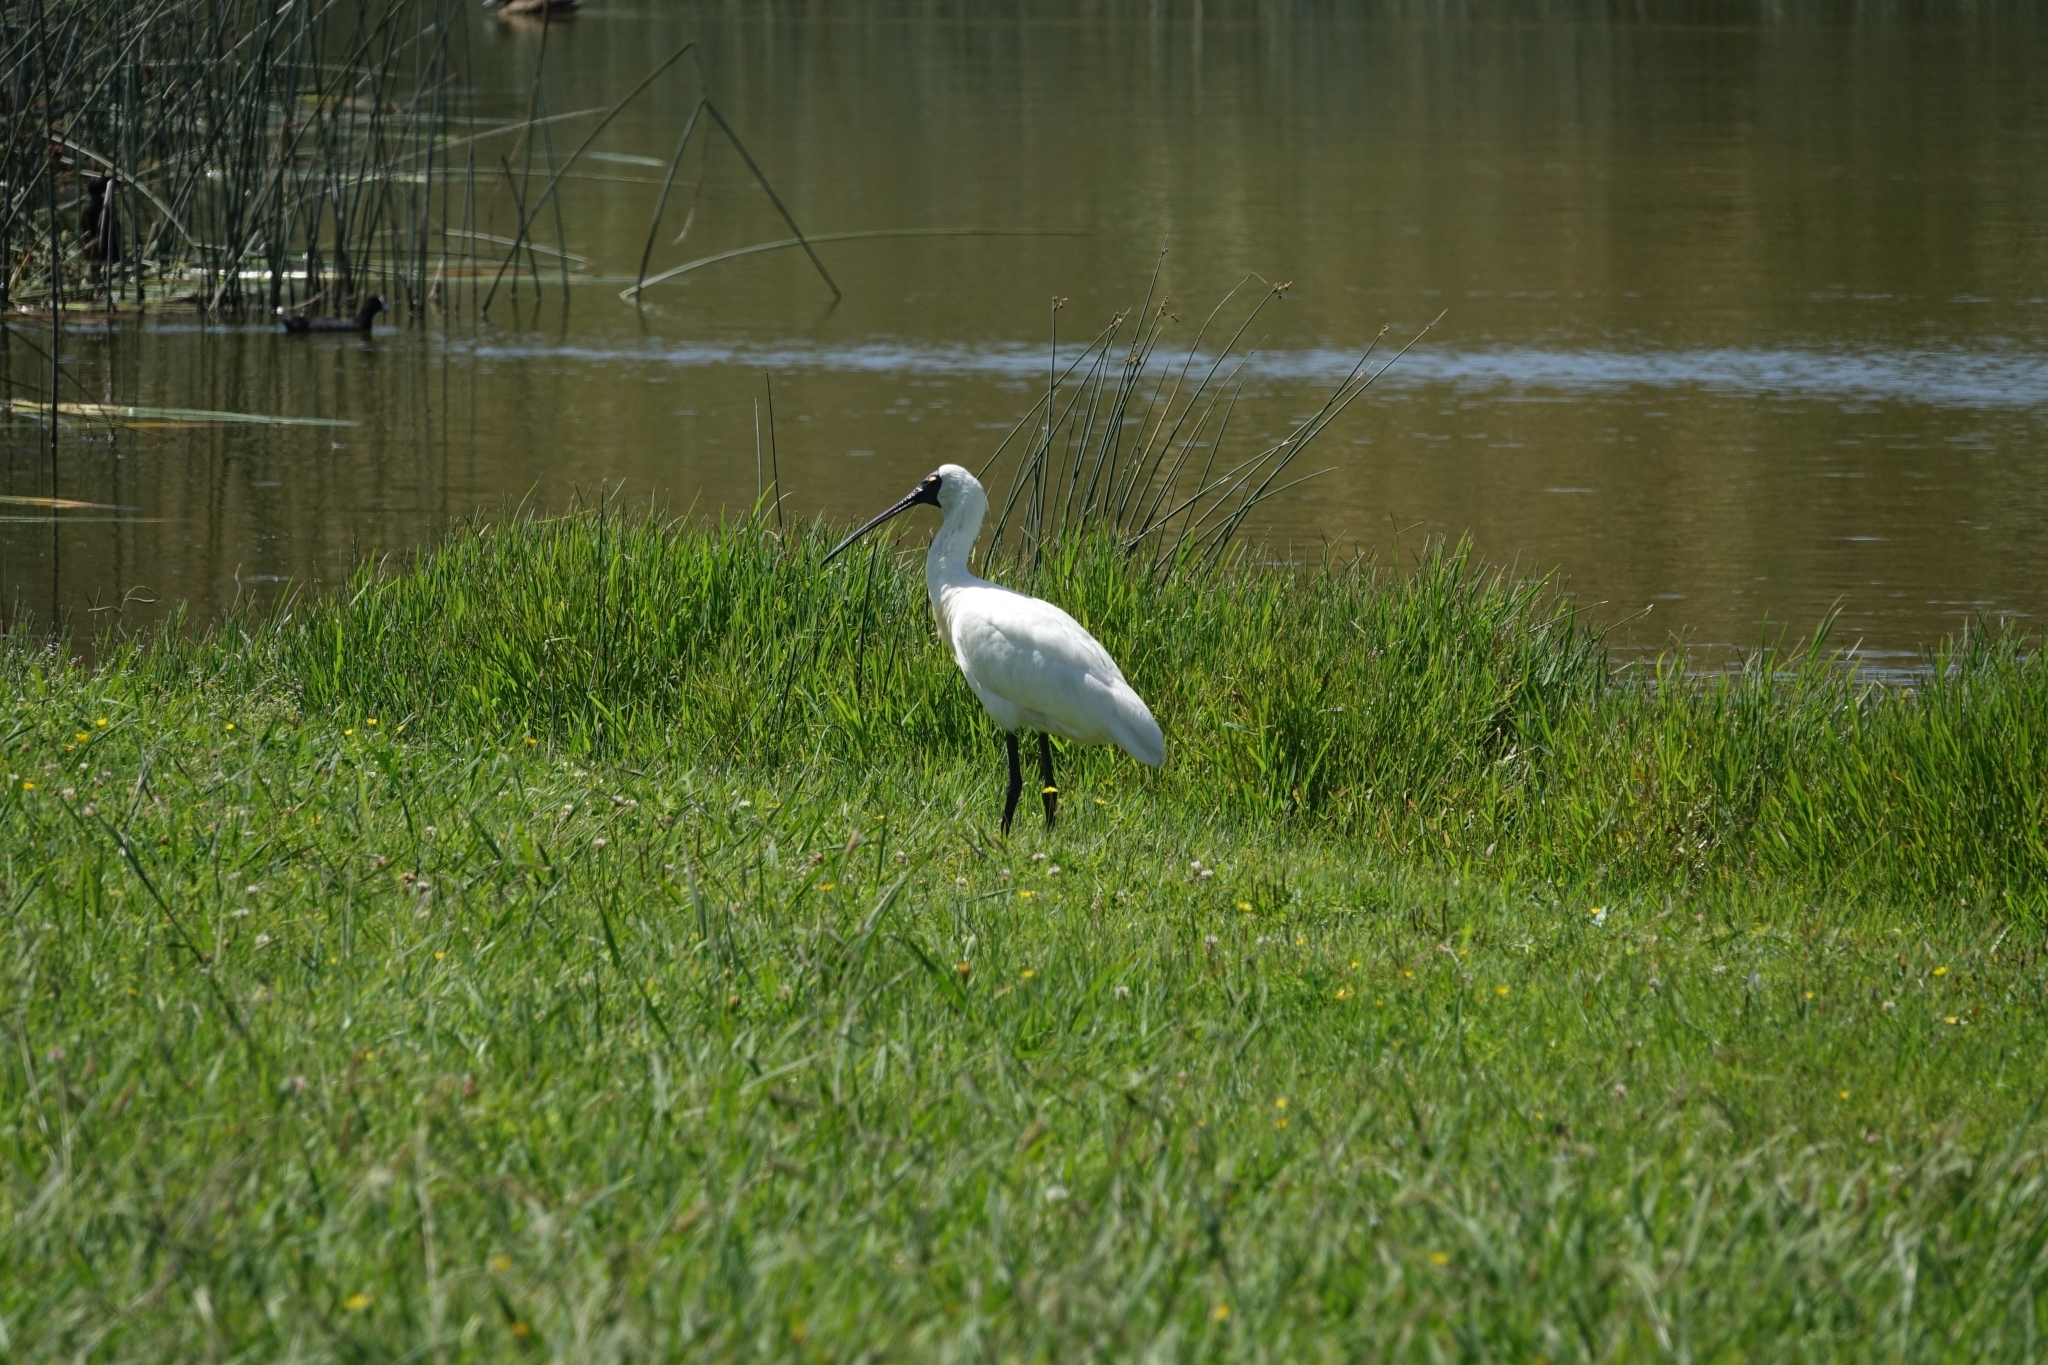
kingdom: Animalia
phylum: Chordata
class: Aves
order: Pelecaniformes
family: Threskiornithidae
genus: Platalea
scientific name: Platalea regia
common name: Royal spoonbill
